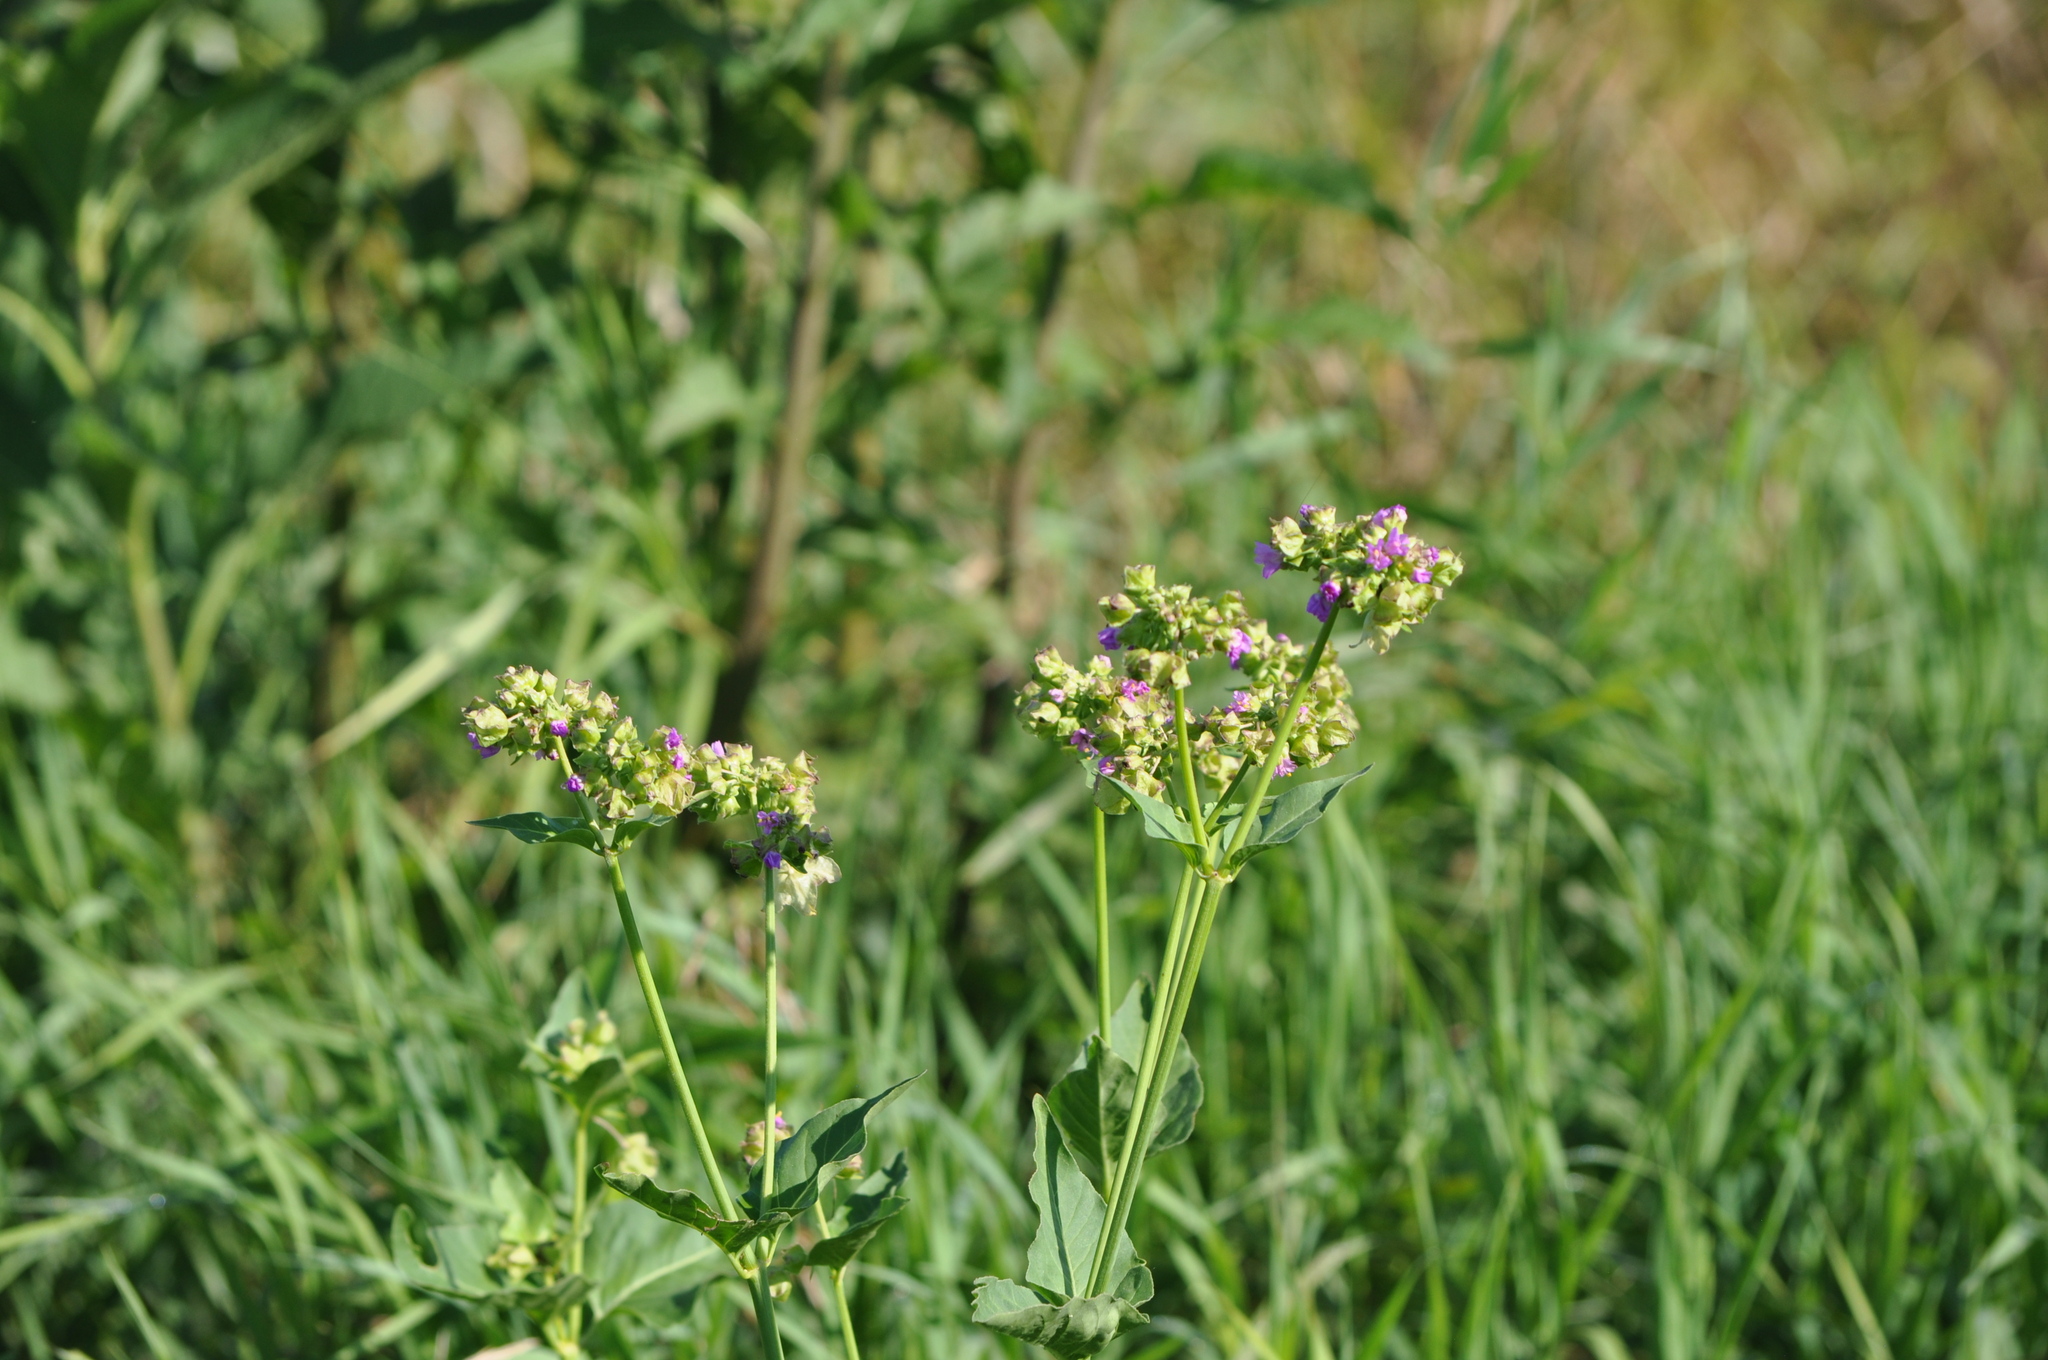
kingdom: Plantae
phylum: Tracheophyta
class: Magnoliopsida
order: Caryophyllales
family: Nyctaginaceae
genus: Mirabilis
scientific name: Mirabilis nyctaginea
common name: Umbrella wort
